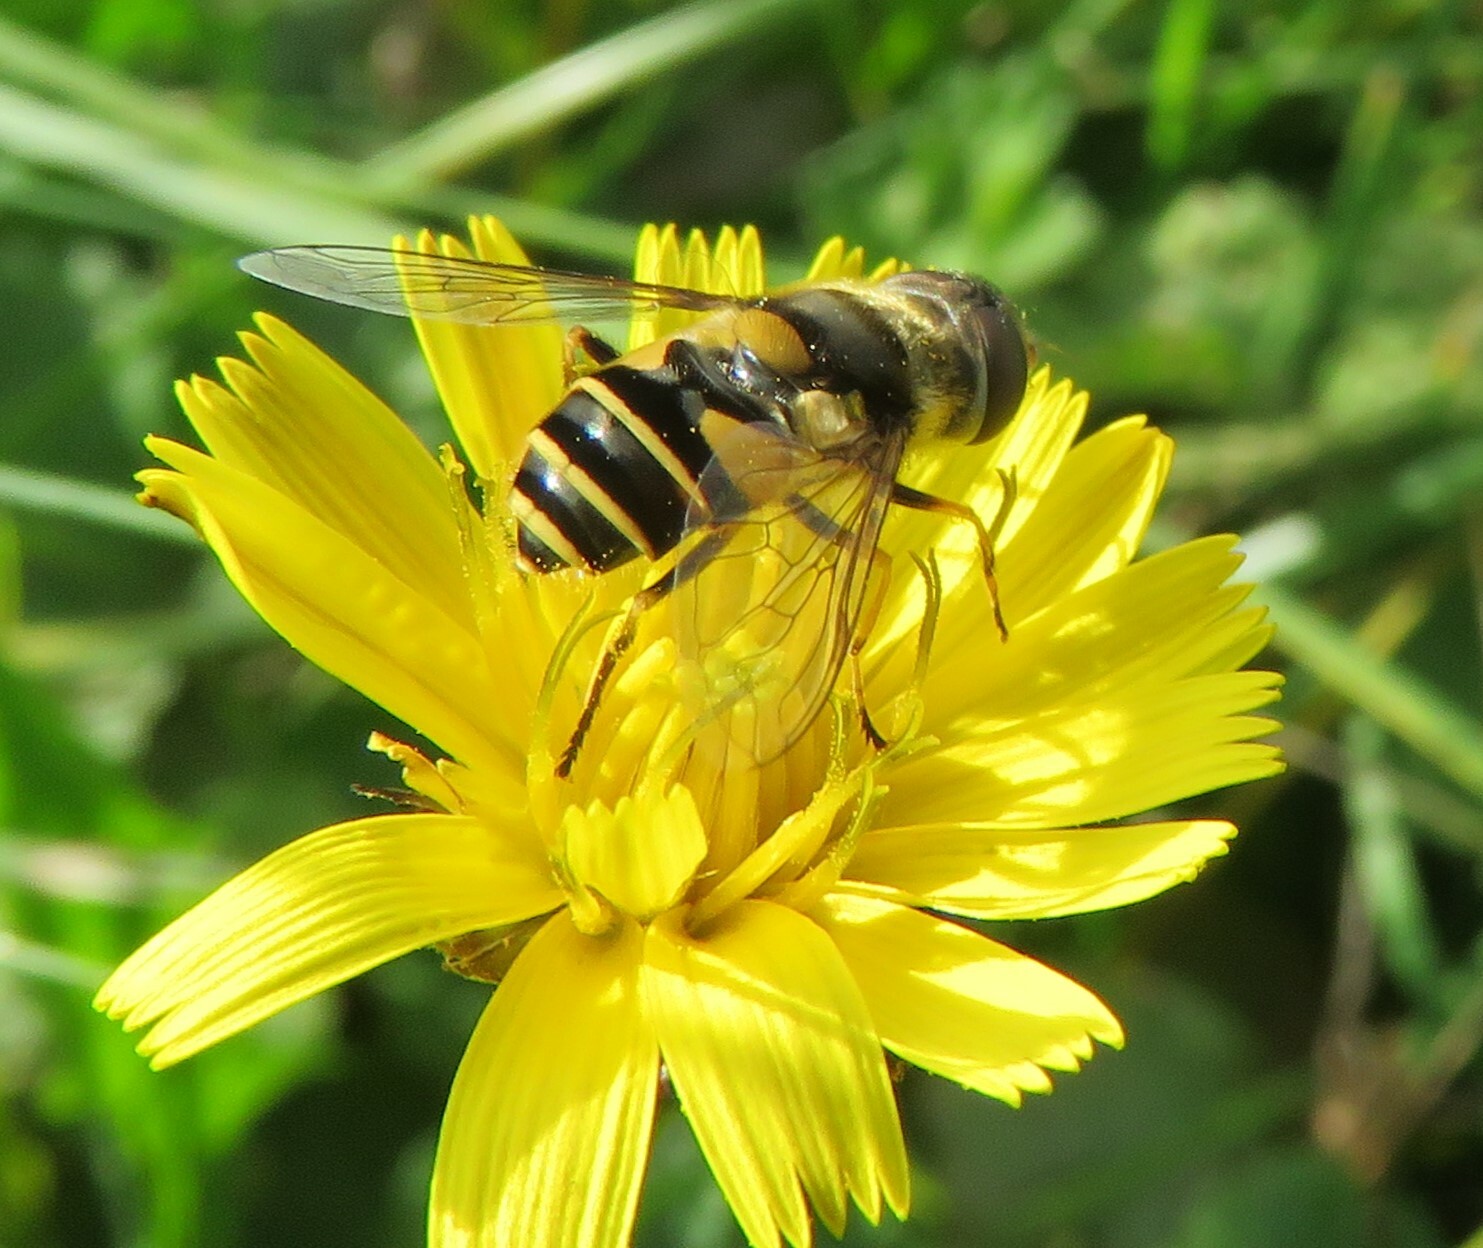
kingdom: Animalia
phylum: Arthropoda
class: Insecta
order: Diptera
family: Syrphidae
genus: Eristalis
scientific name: Eristalis transversa
